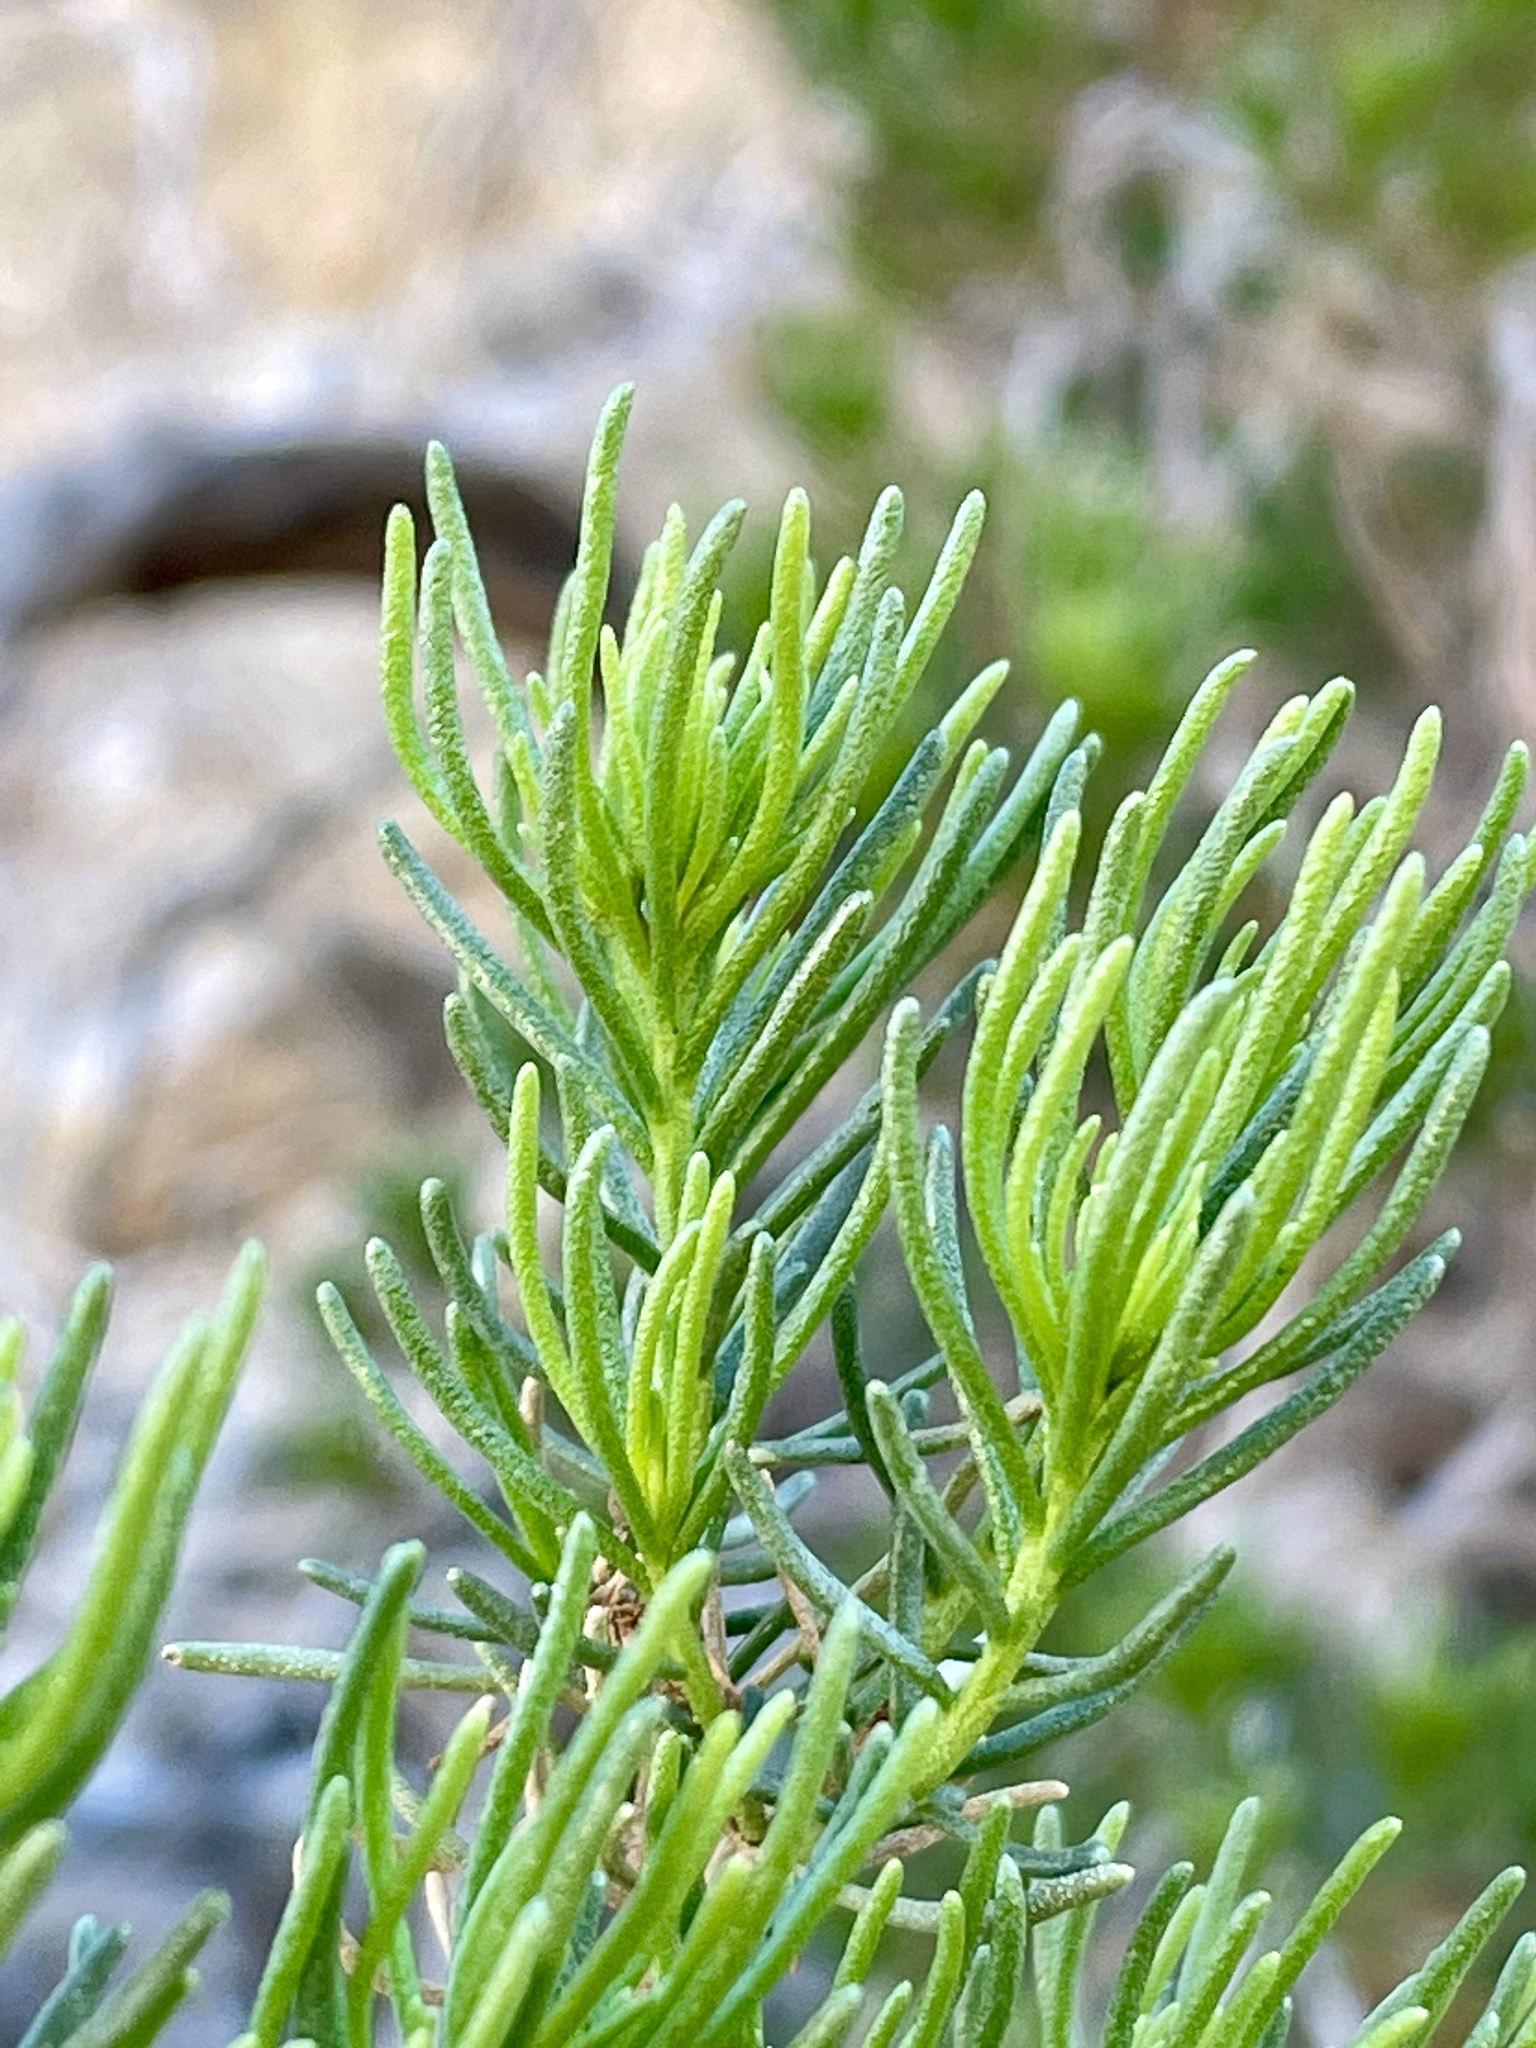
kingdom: Plantae
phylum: Tracheophyta
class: Magnoliopsida
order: Asterales
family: Asteraceae
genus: Peucephyllum
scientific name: Peucephyllum schottii
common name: Pygmy-cedar
